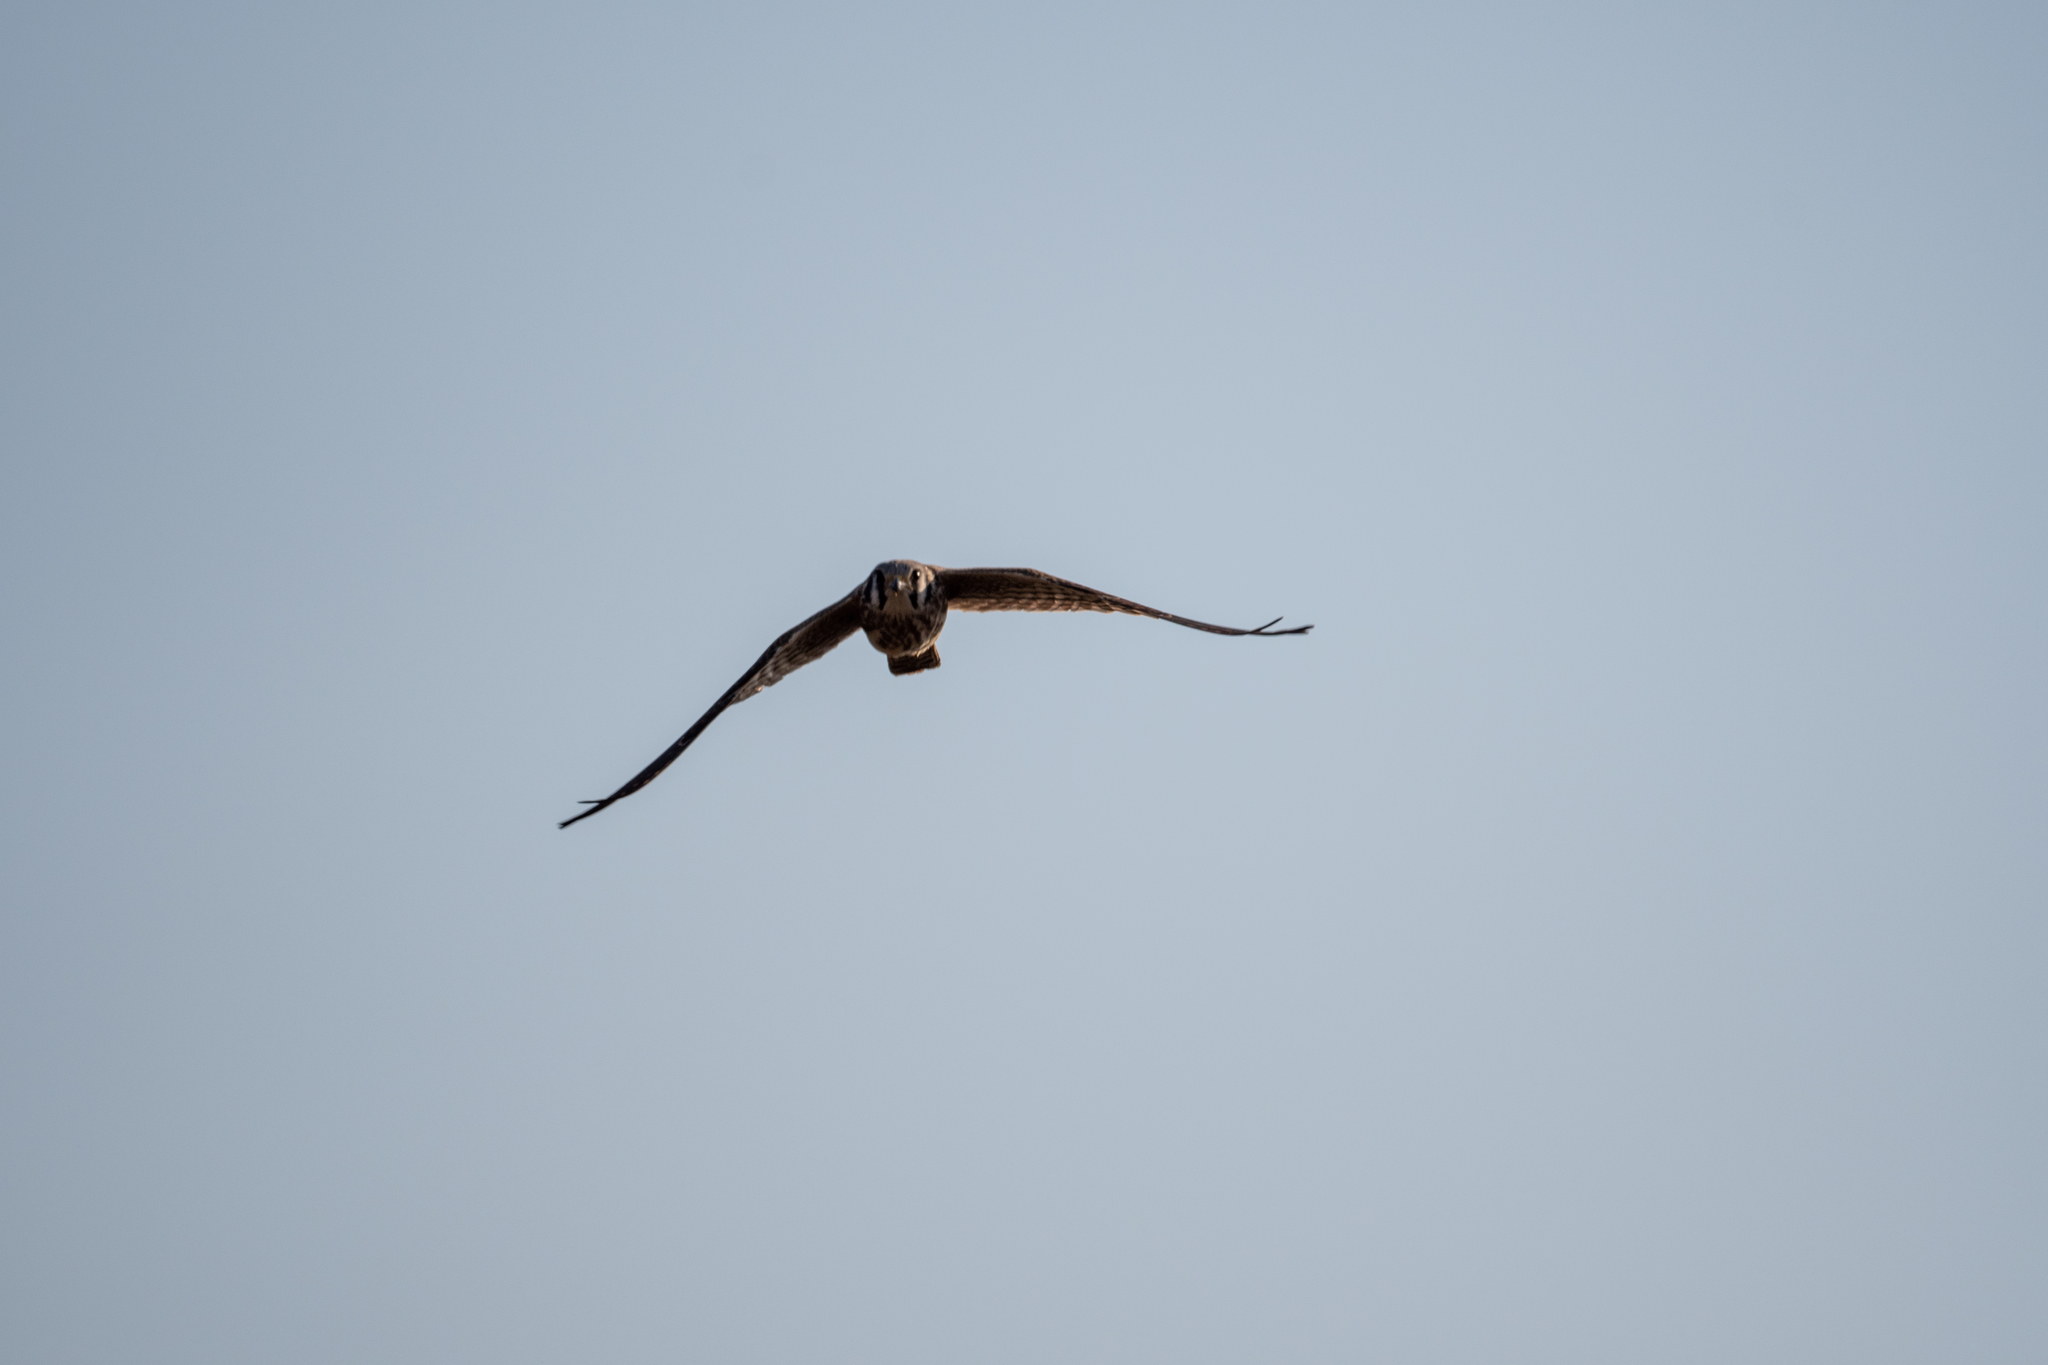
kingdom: Animalia
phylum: Chordata
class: Aves
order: Falconiformes
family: Falconidae
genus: Falco
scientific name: Falco sparverius
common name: American kestrel
